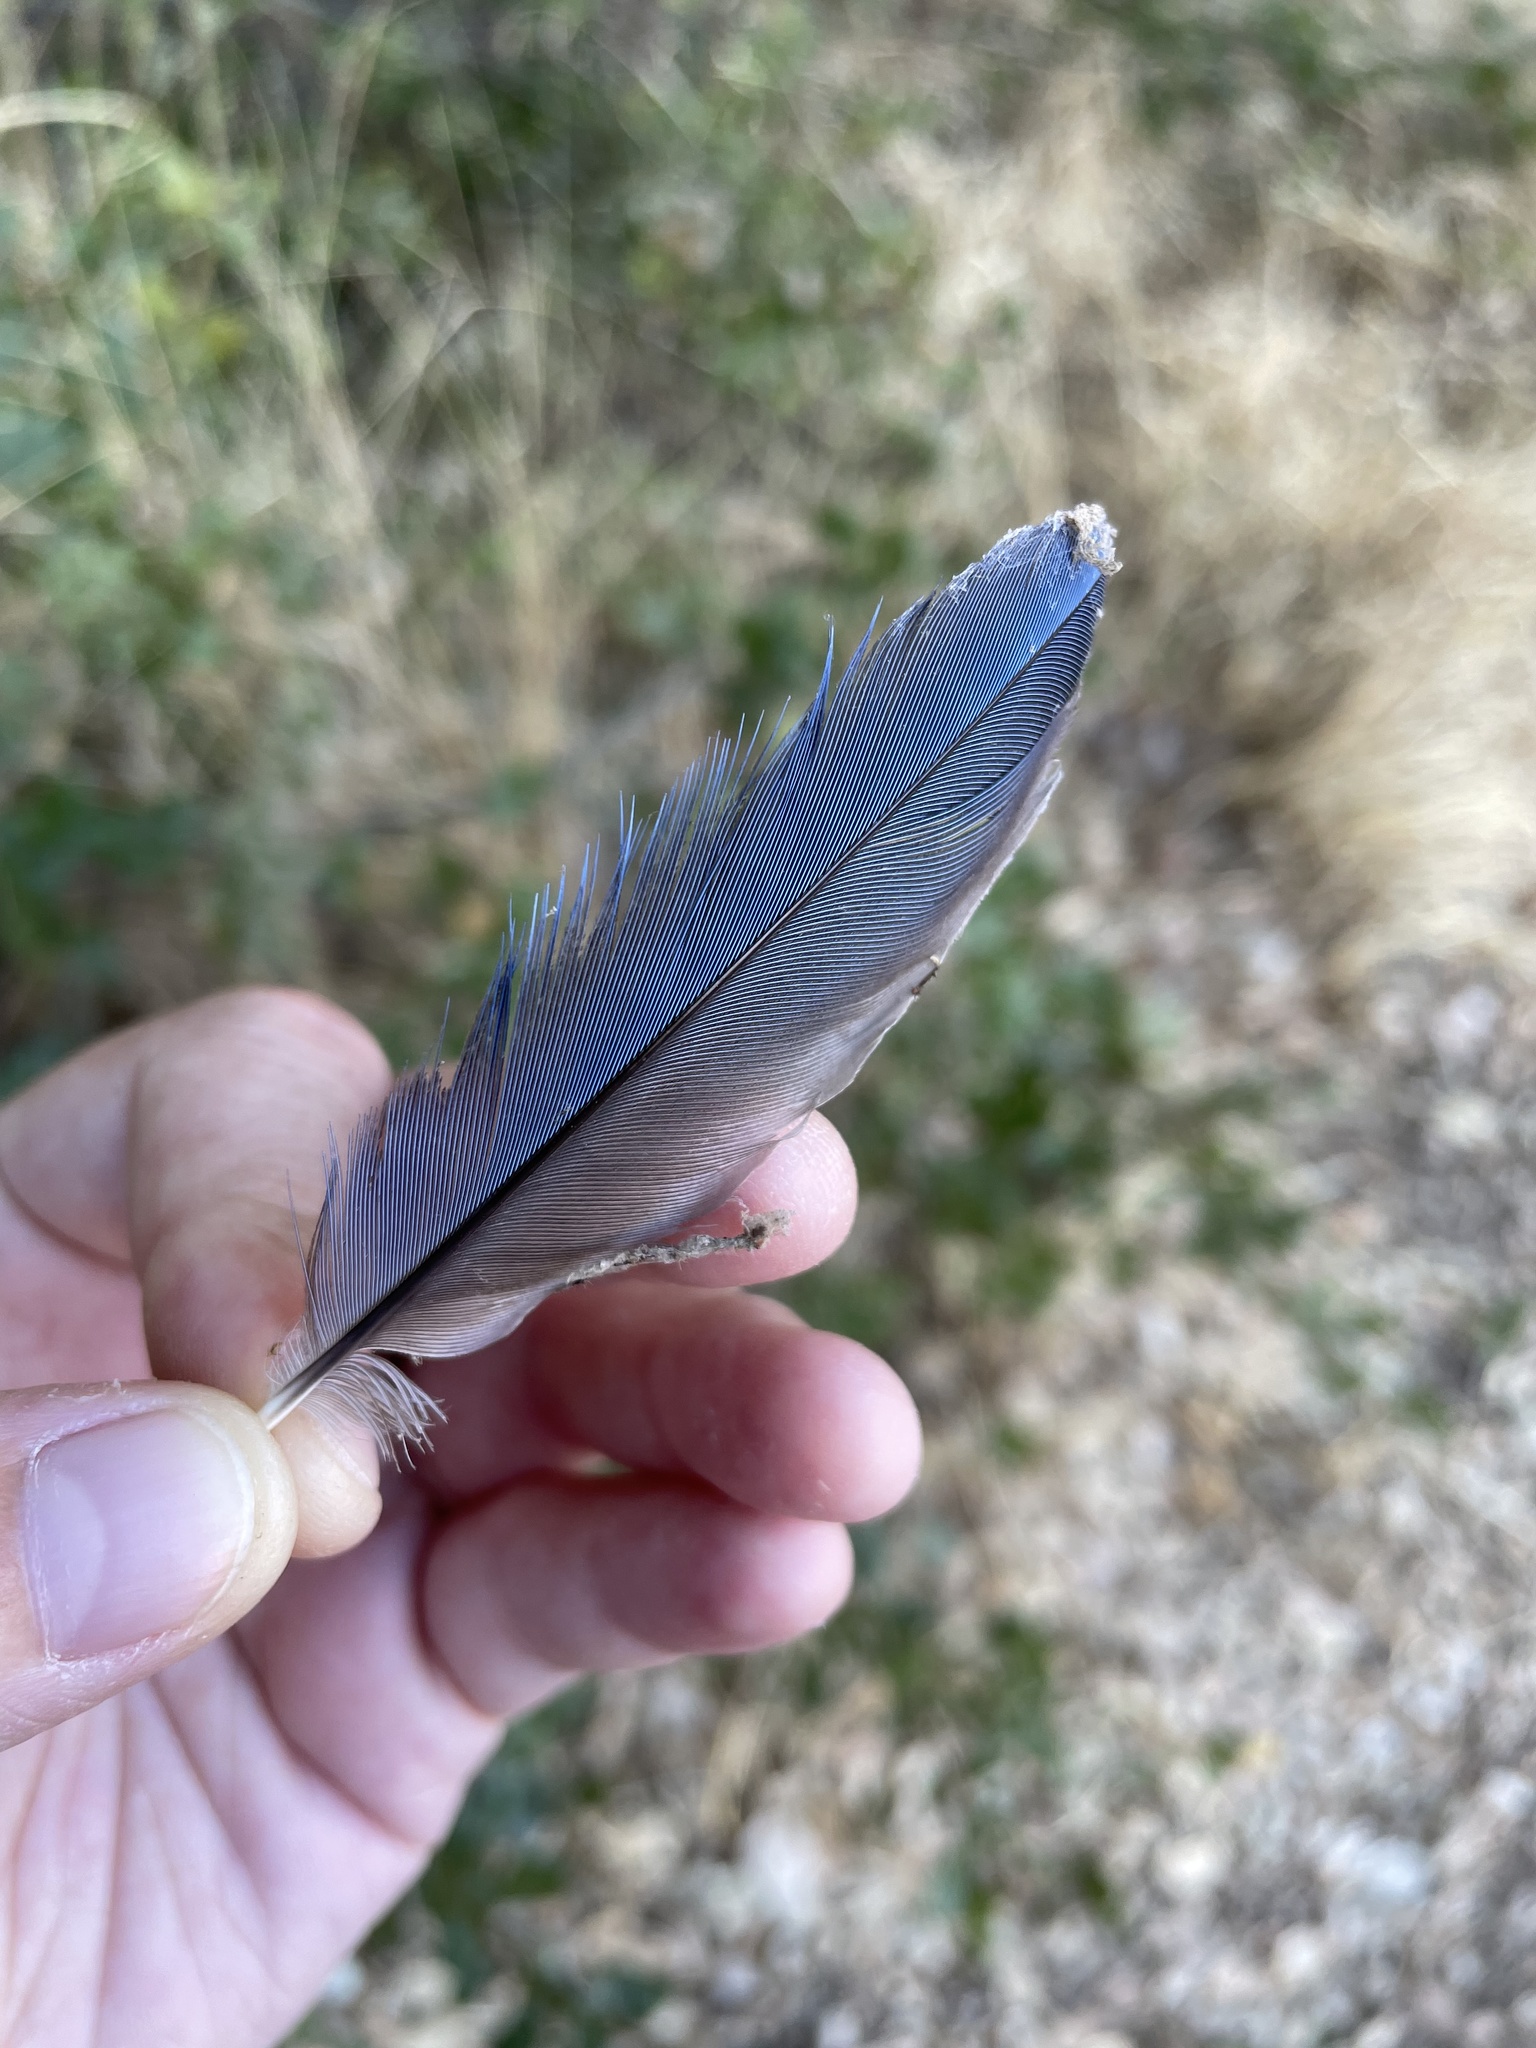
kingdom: Animalia
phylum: Chordata
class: Aves
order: Passeriformes
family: Corvidae
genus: Aphelocoma
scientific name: Aphelocoma californica
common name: California scrub-jay
